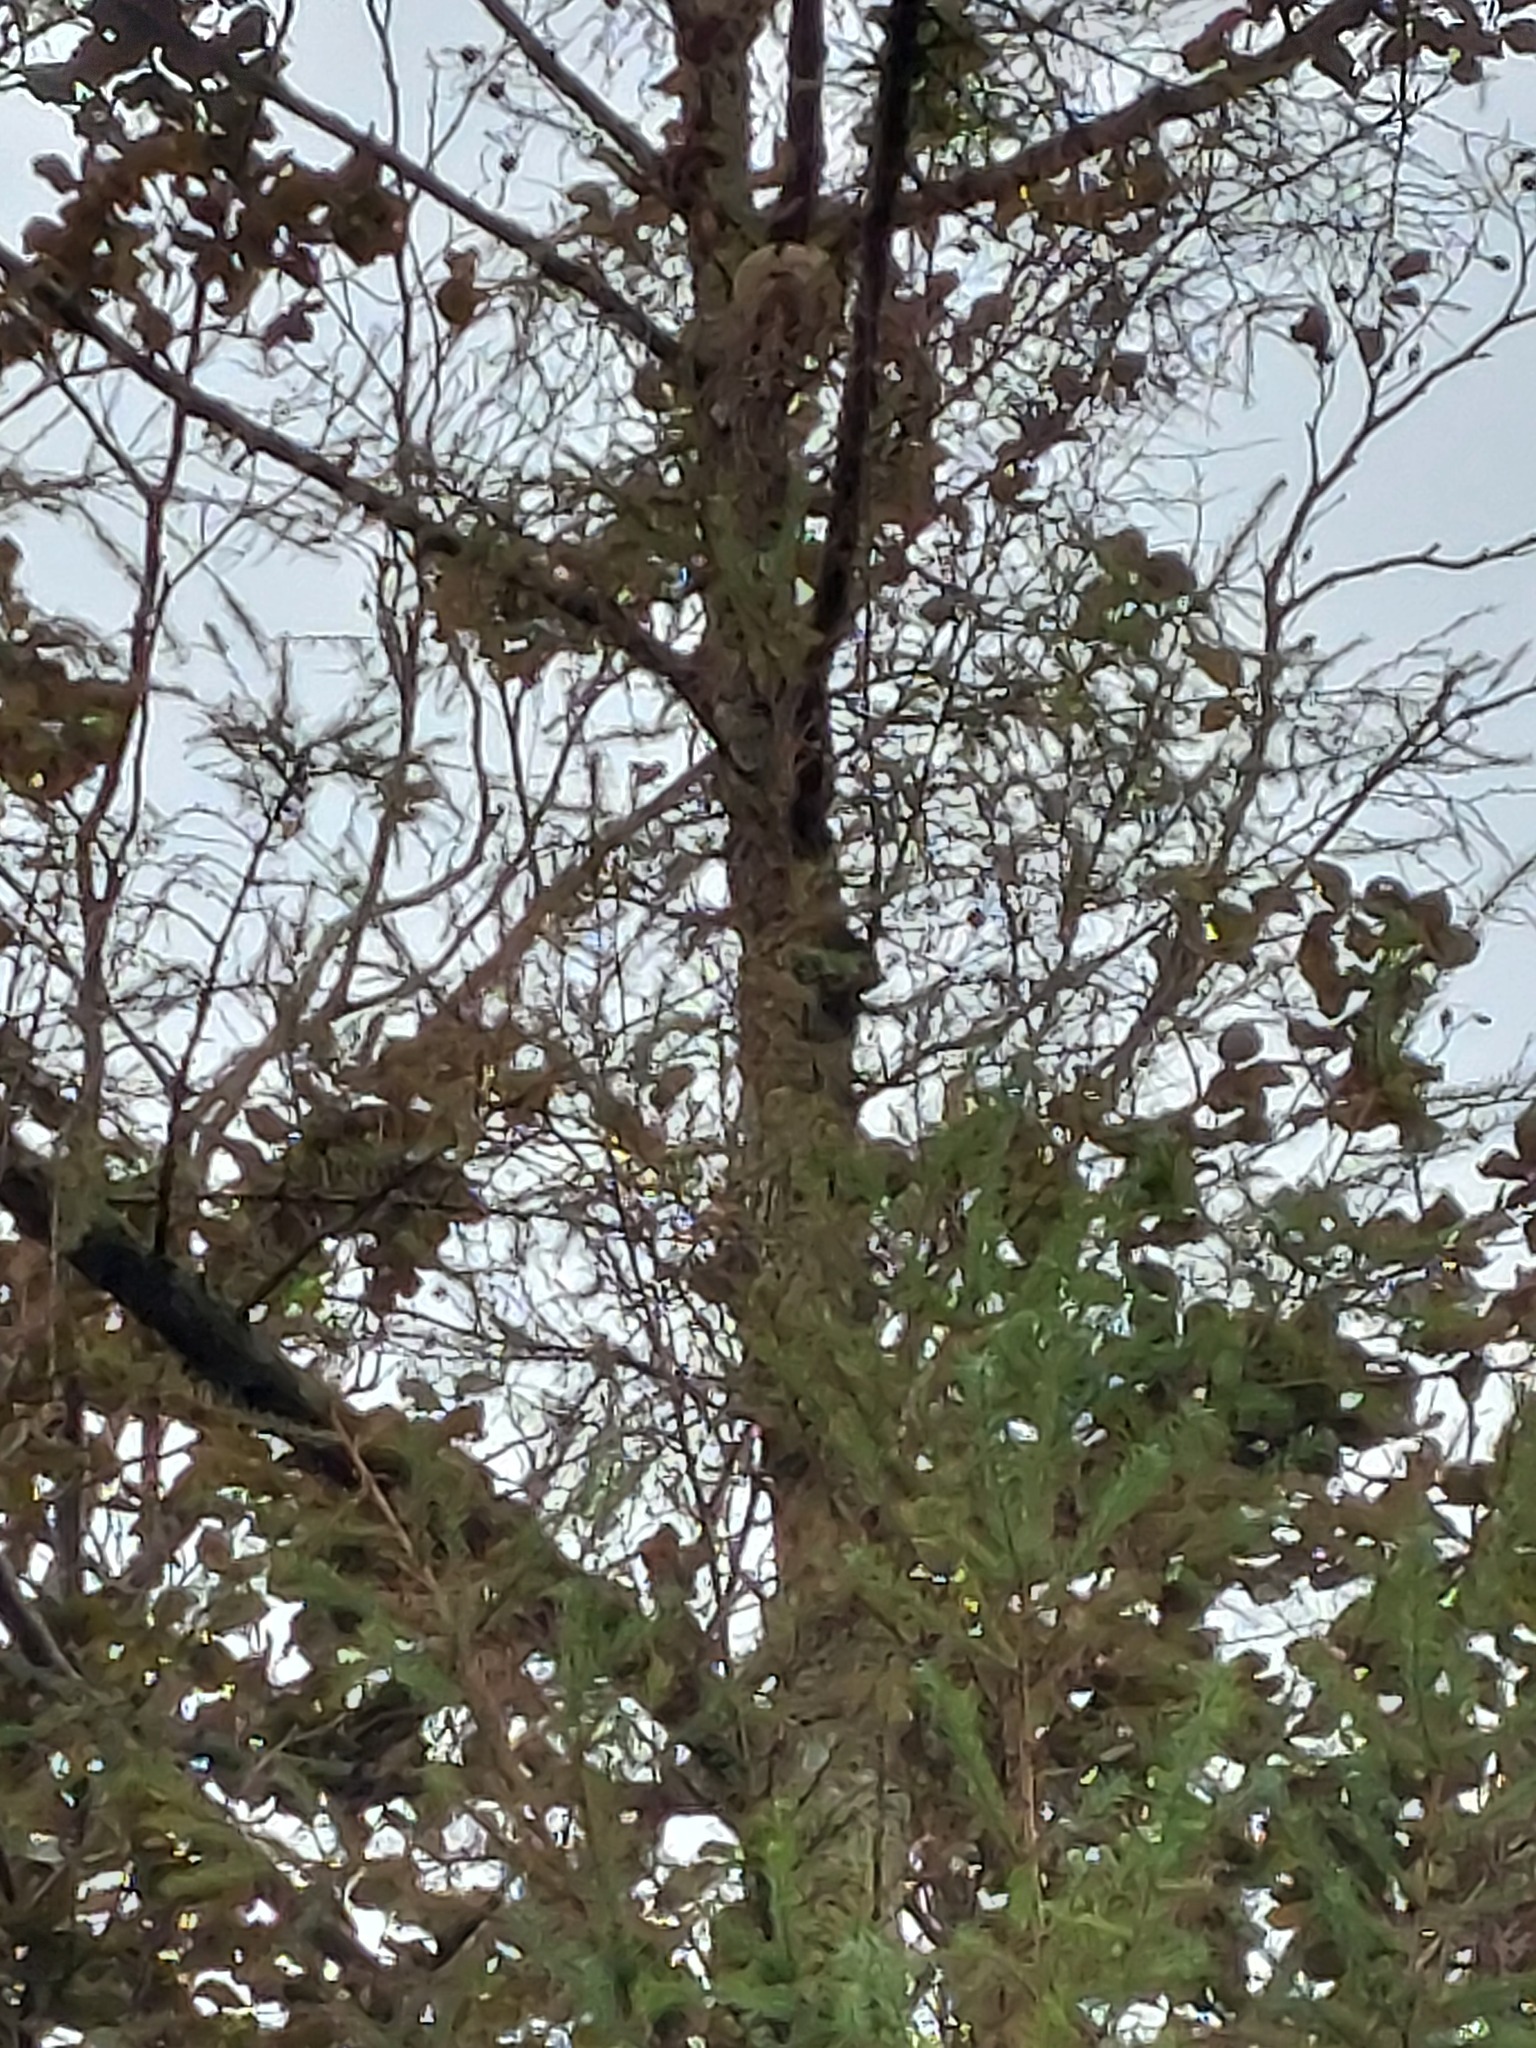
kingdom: Animalia
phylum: Arthropoda
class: Insecta
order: Hymenoptera
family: Vespidae
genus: Vespa
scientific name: Vespa velutina
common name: Asian hornet
